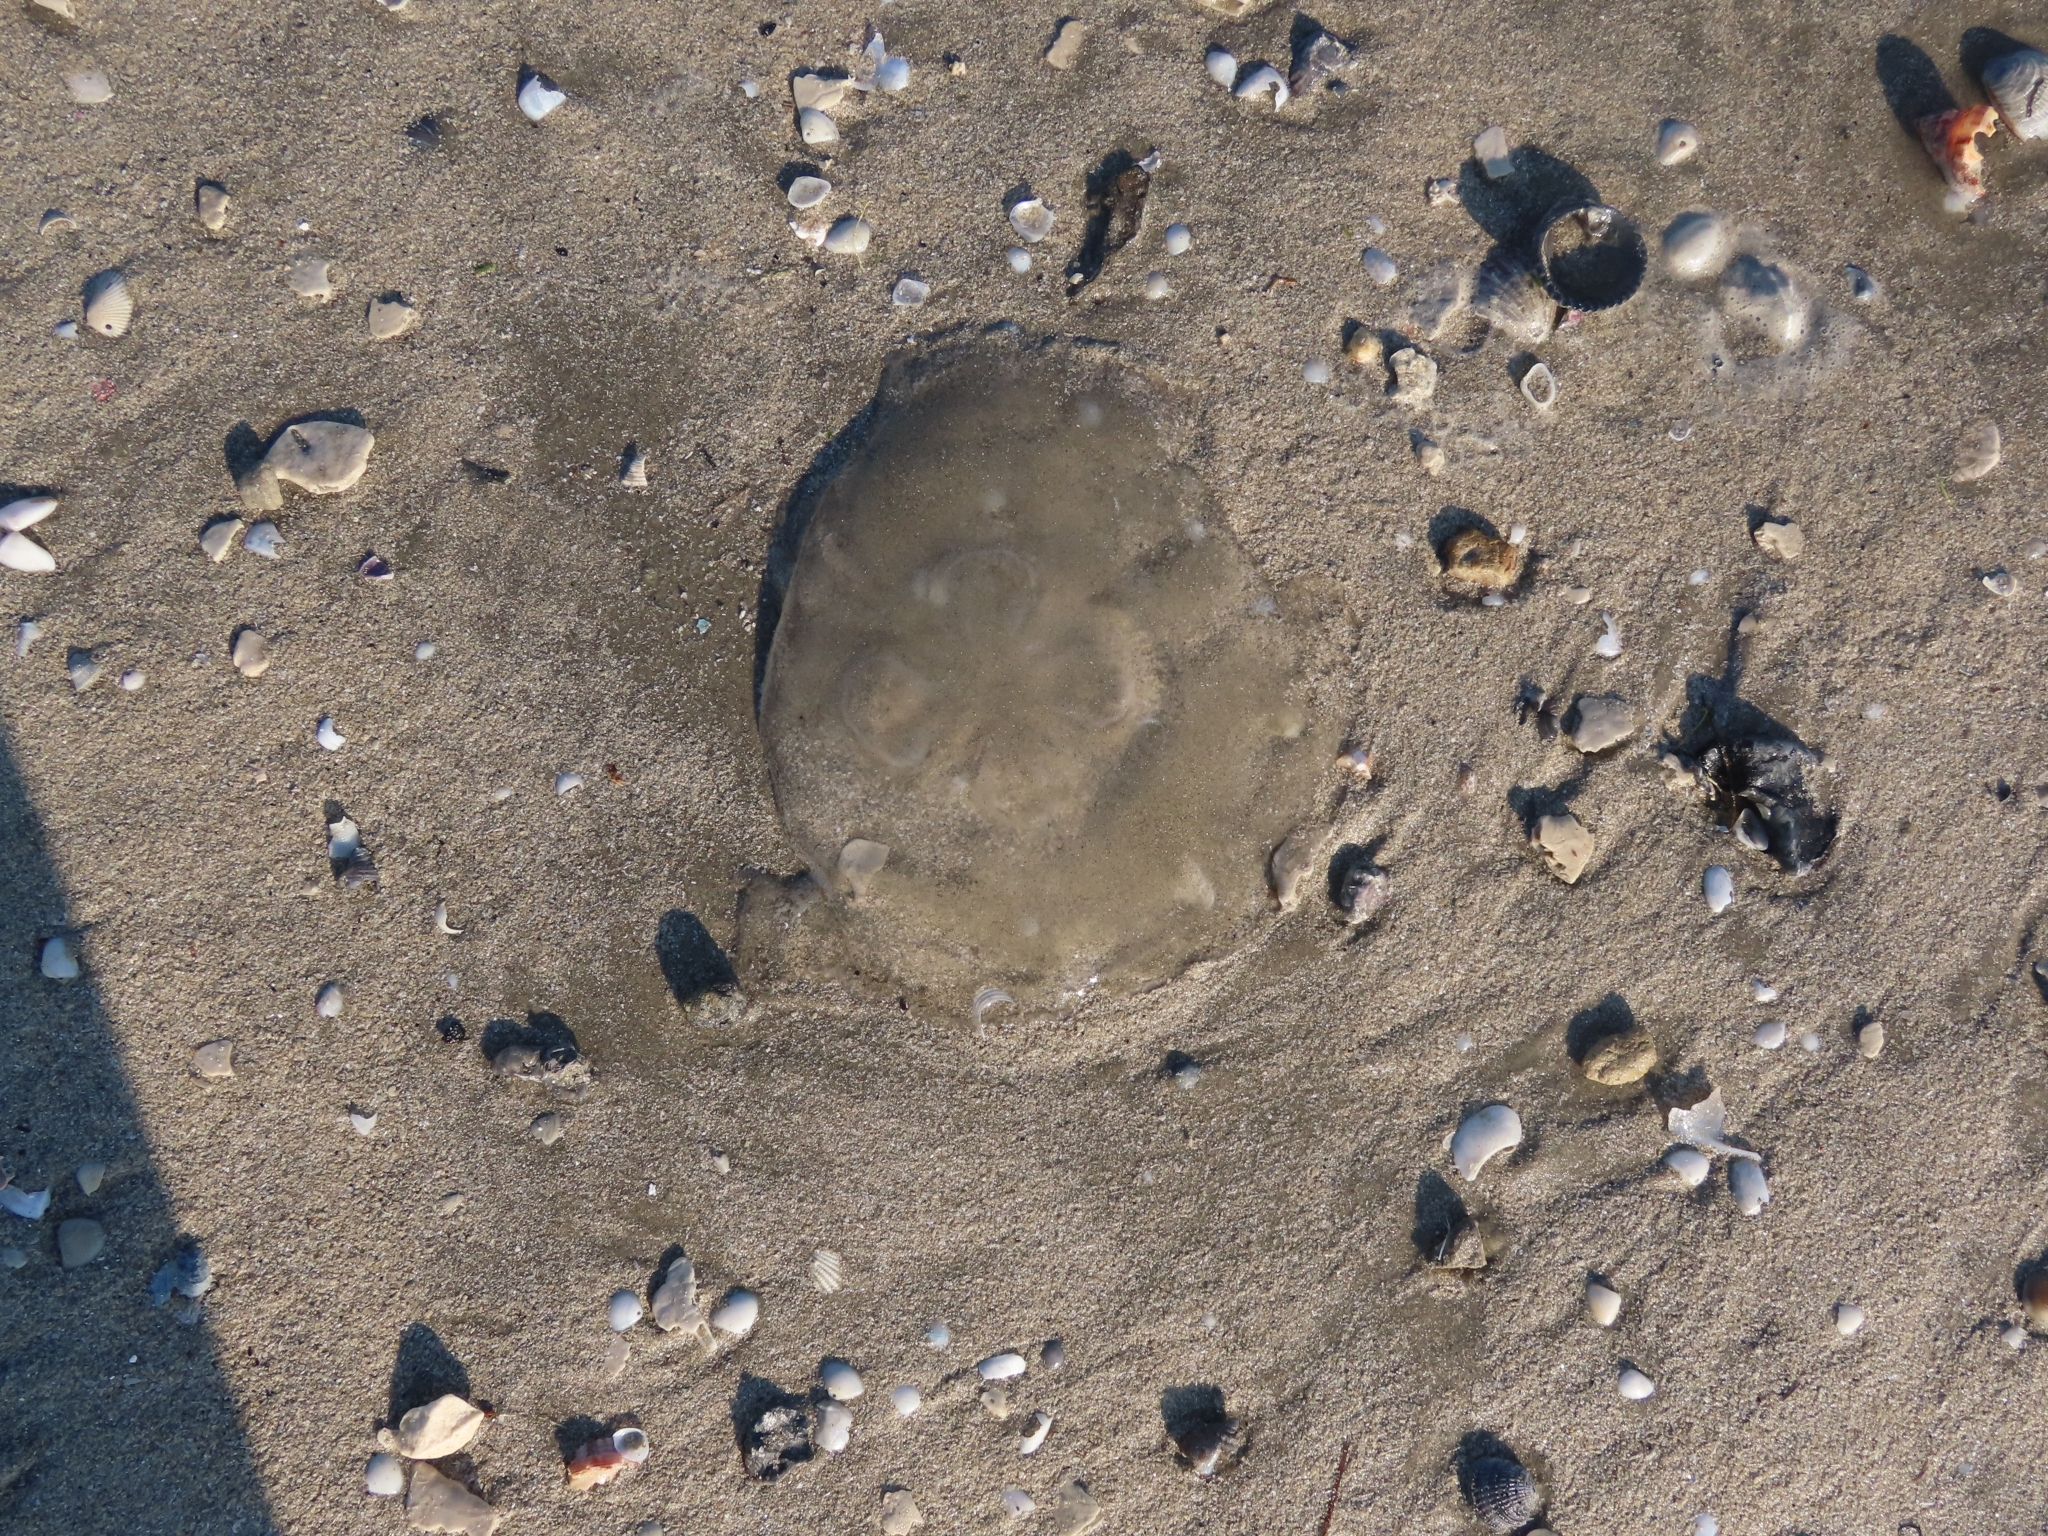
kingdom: Animalia
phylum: Cnidaria
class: Scyphozoa
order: Semaeostomeae
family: Ulmaridae
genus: Aurelia
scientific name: Aurelia marginalis
